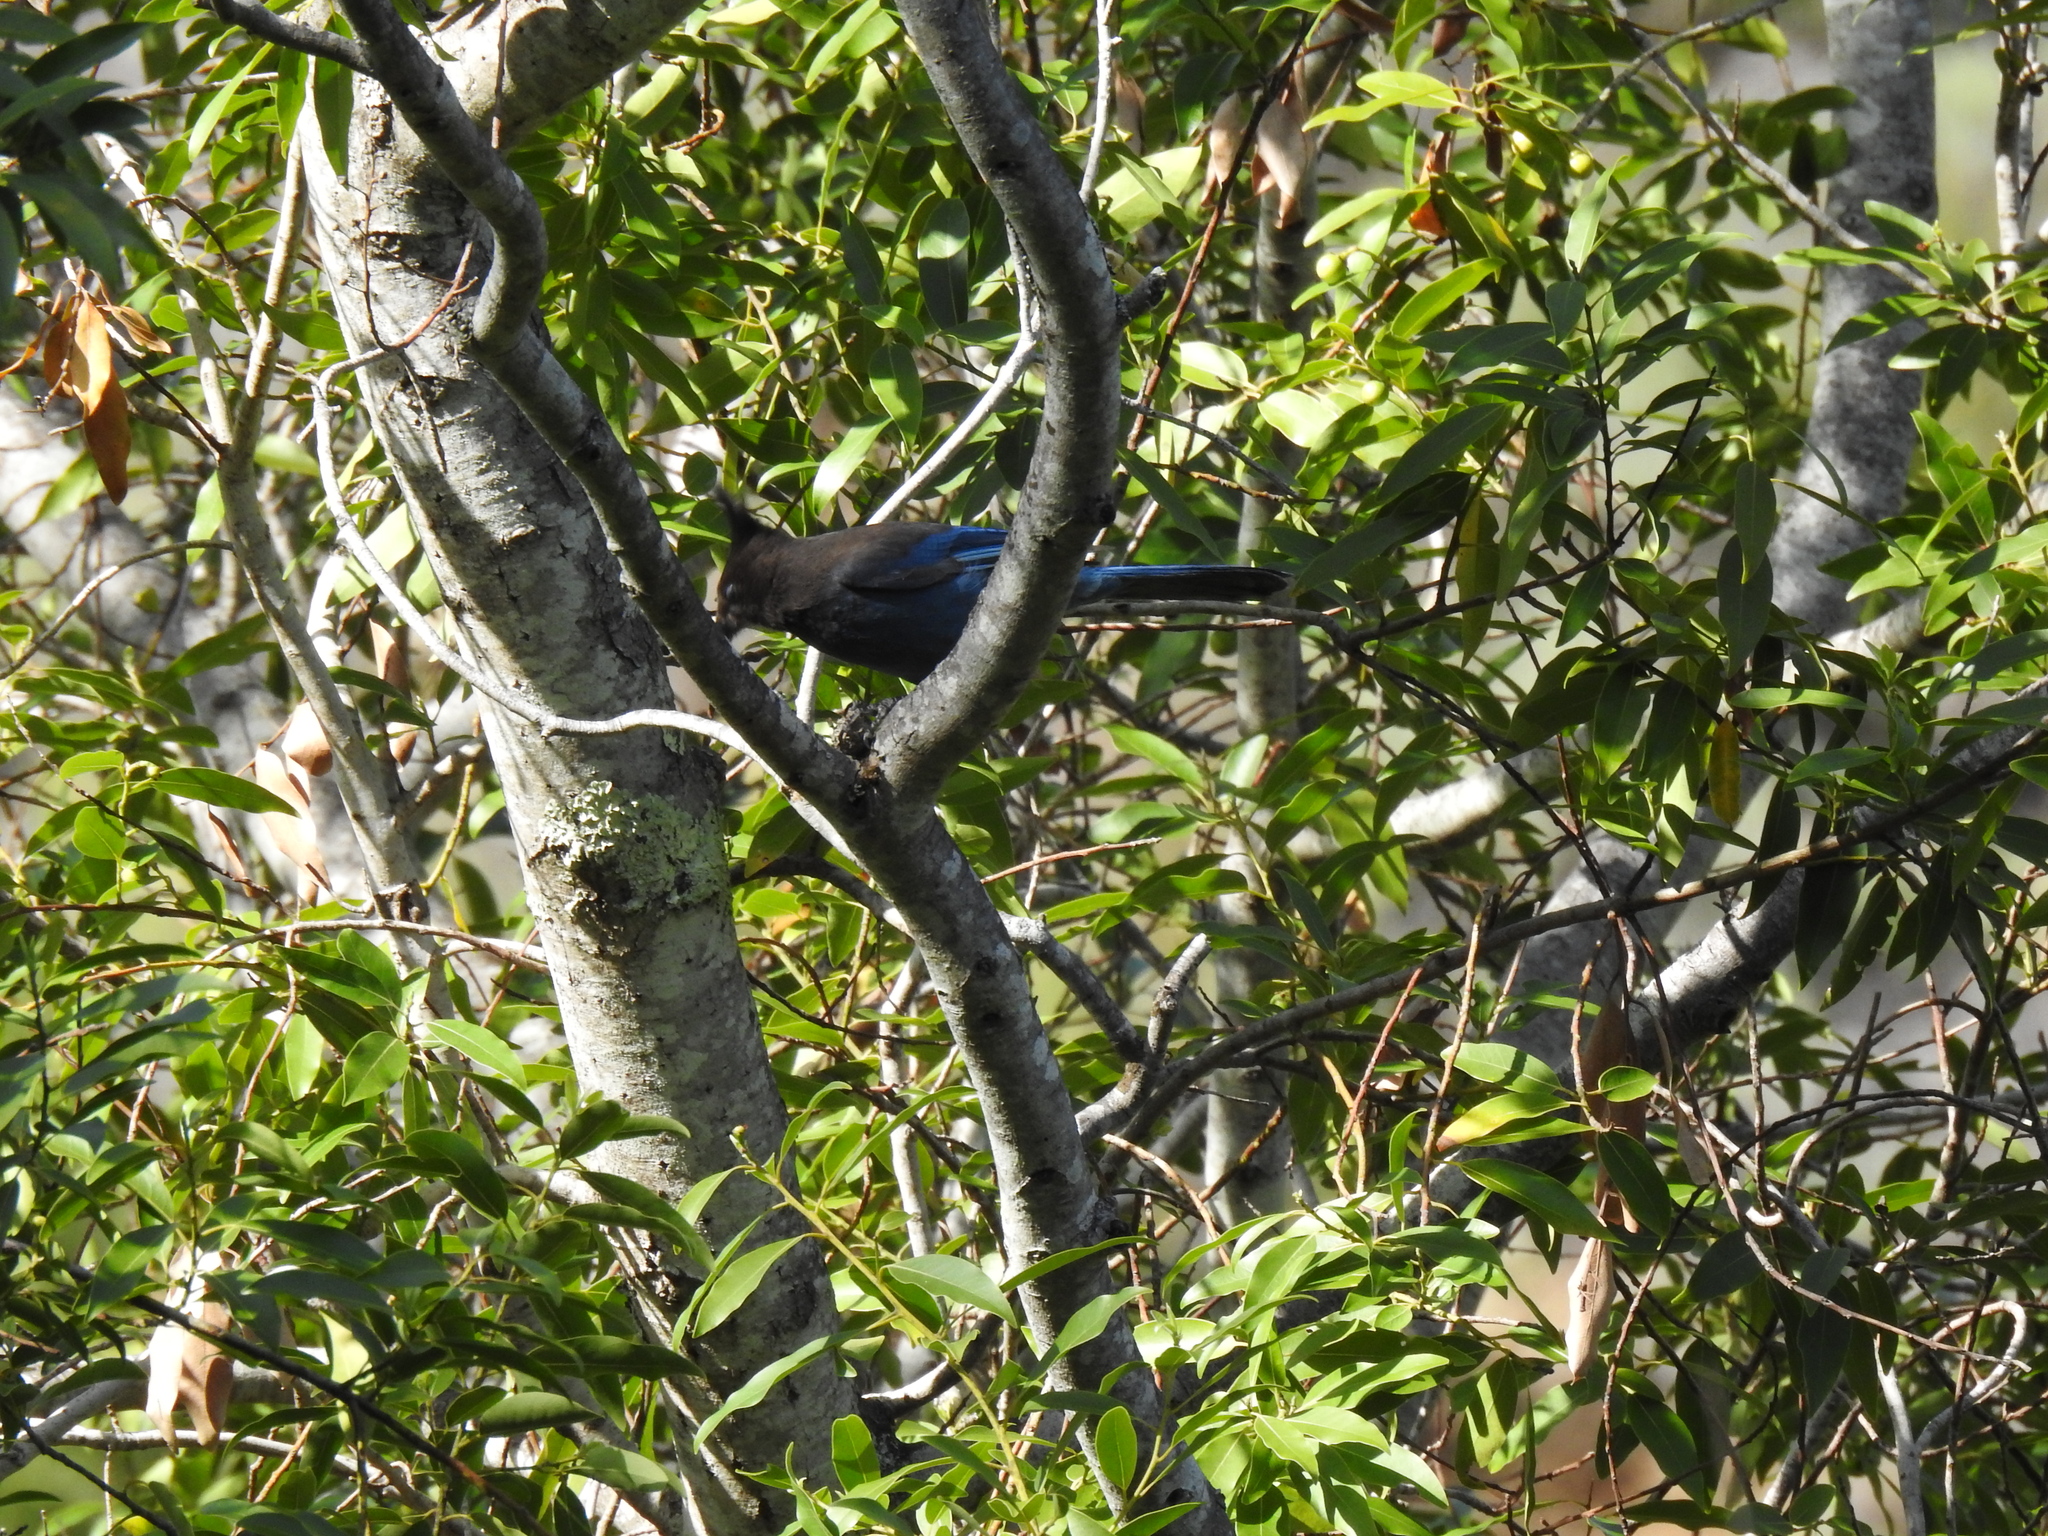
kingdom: Animalia
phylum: Chordata
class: Aves
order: Passeriformes
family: Corvidae
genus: Cyanocitta
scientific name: Cyanocitta stelleri
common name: Steller's jay
